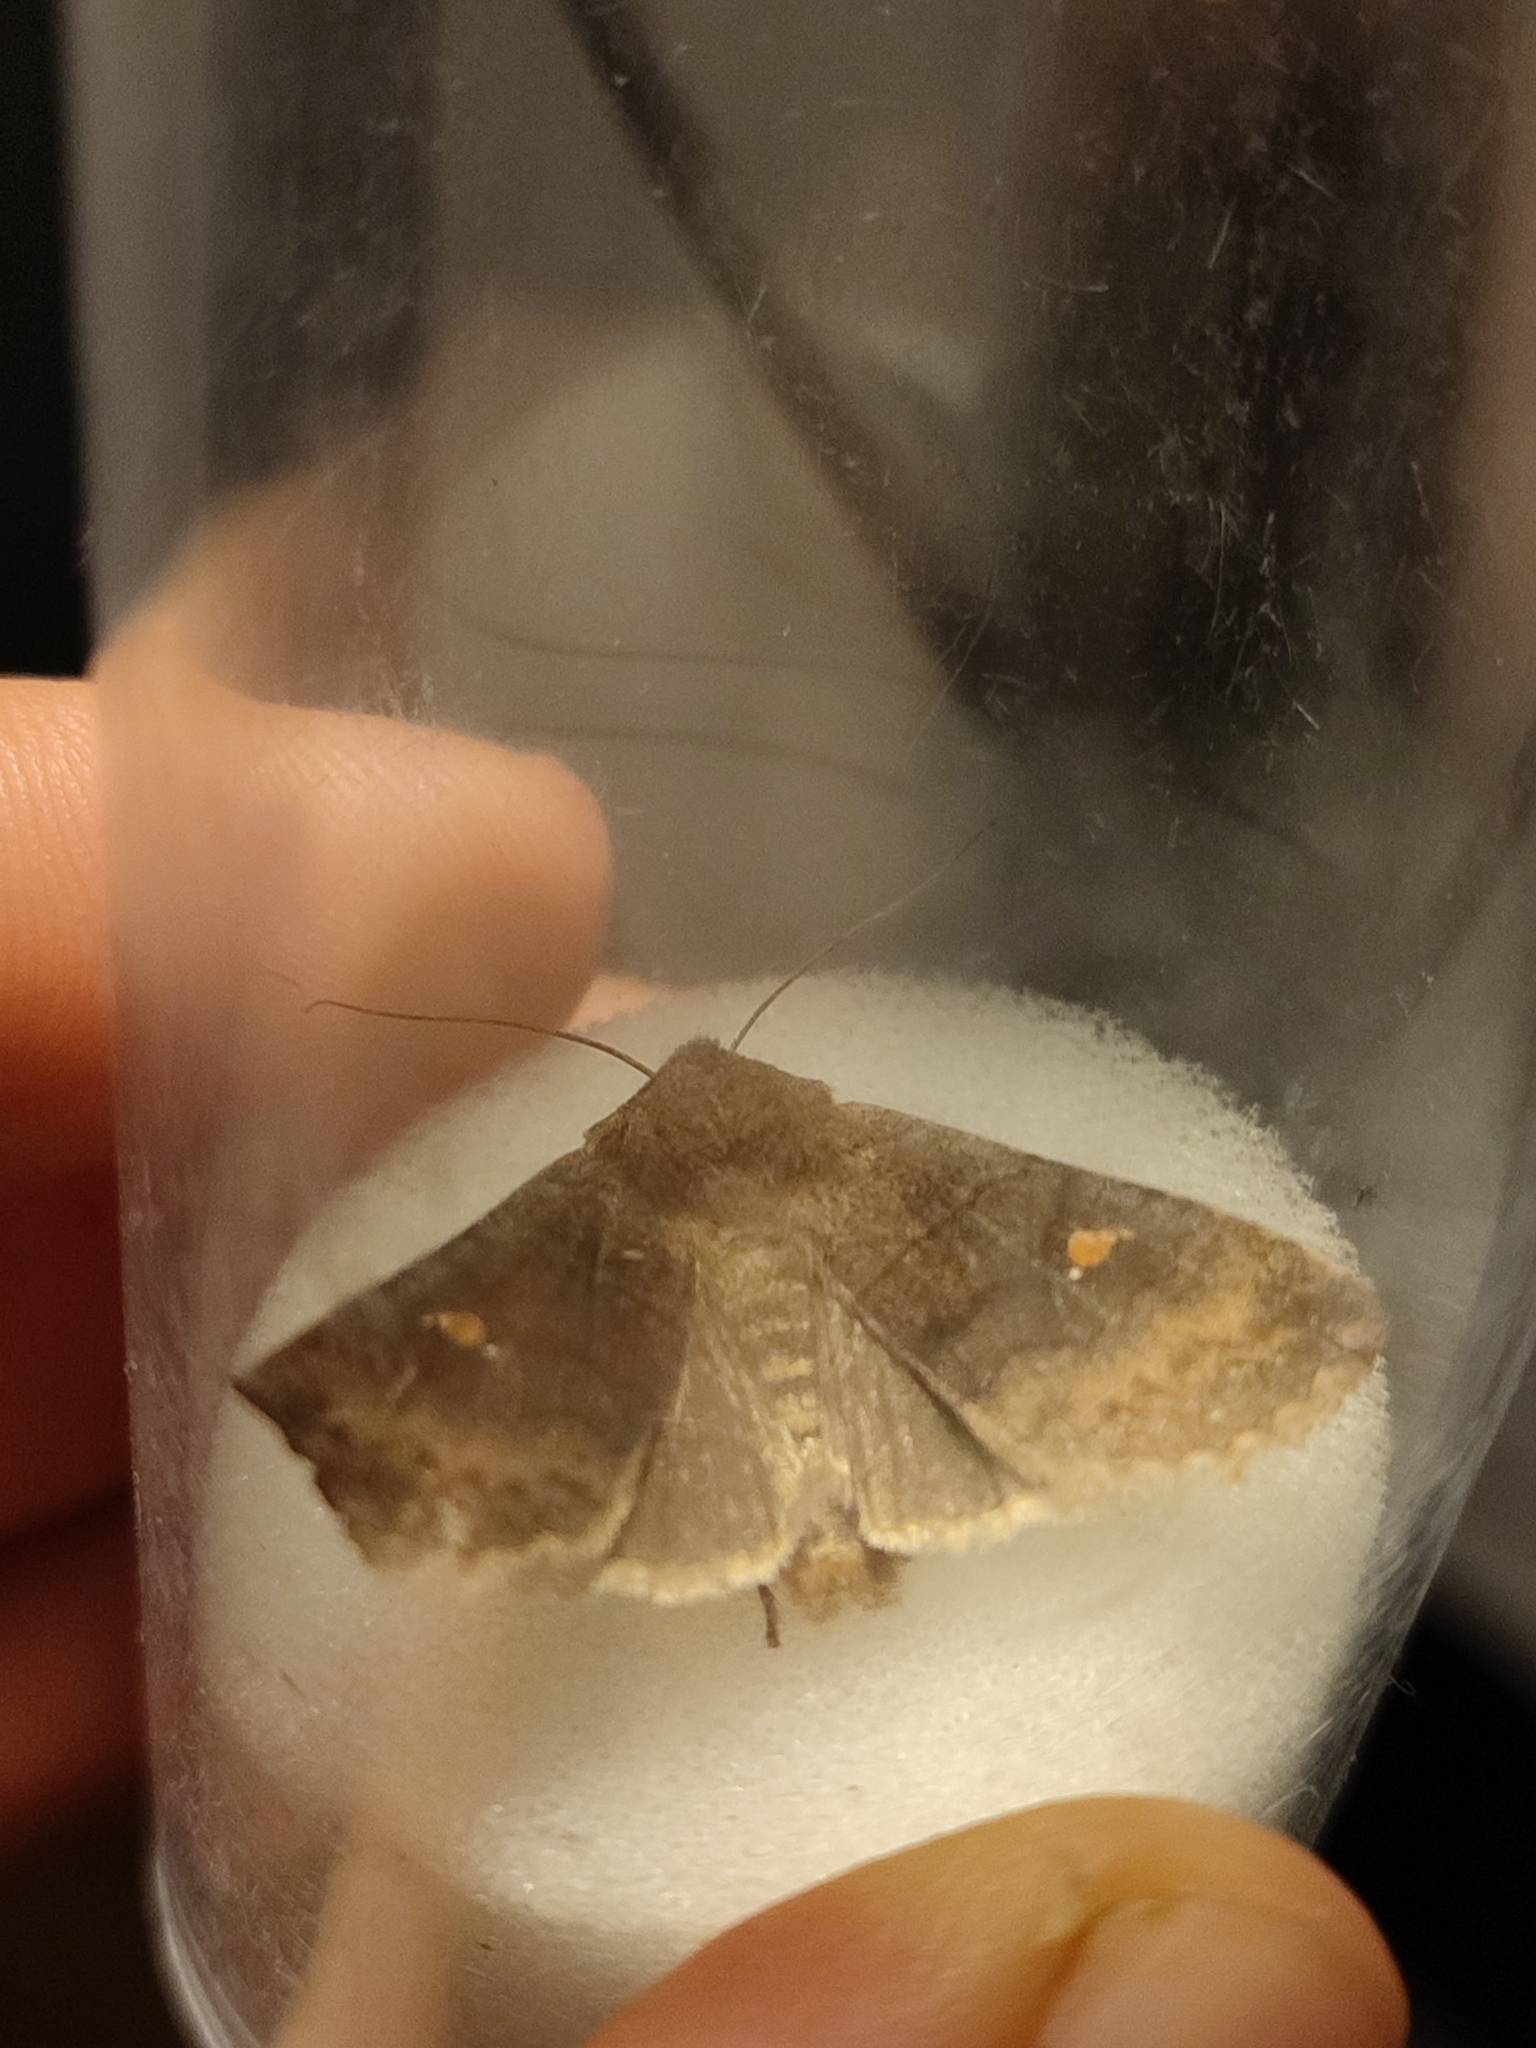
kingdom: Animalia
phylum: Arthropoda
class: Insecta
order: Lepidoptera
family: Noctuidae
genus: Eupsilia
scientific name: Eupsilia transversa
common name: Satellite
